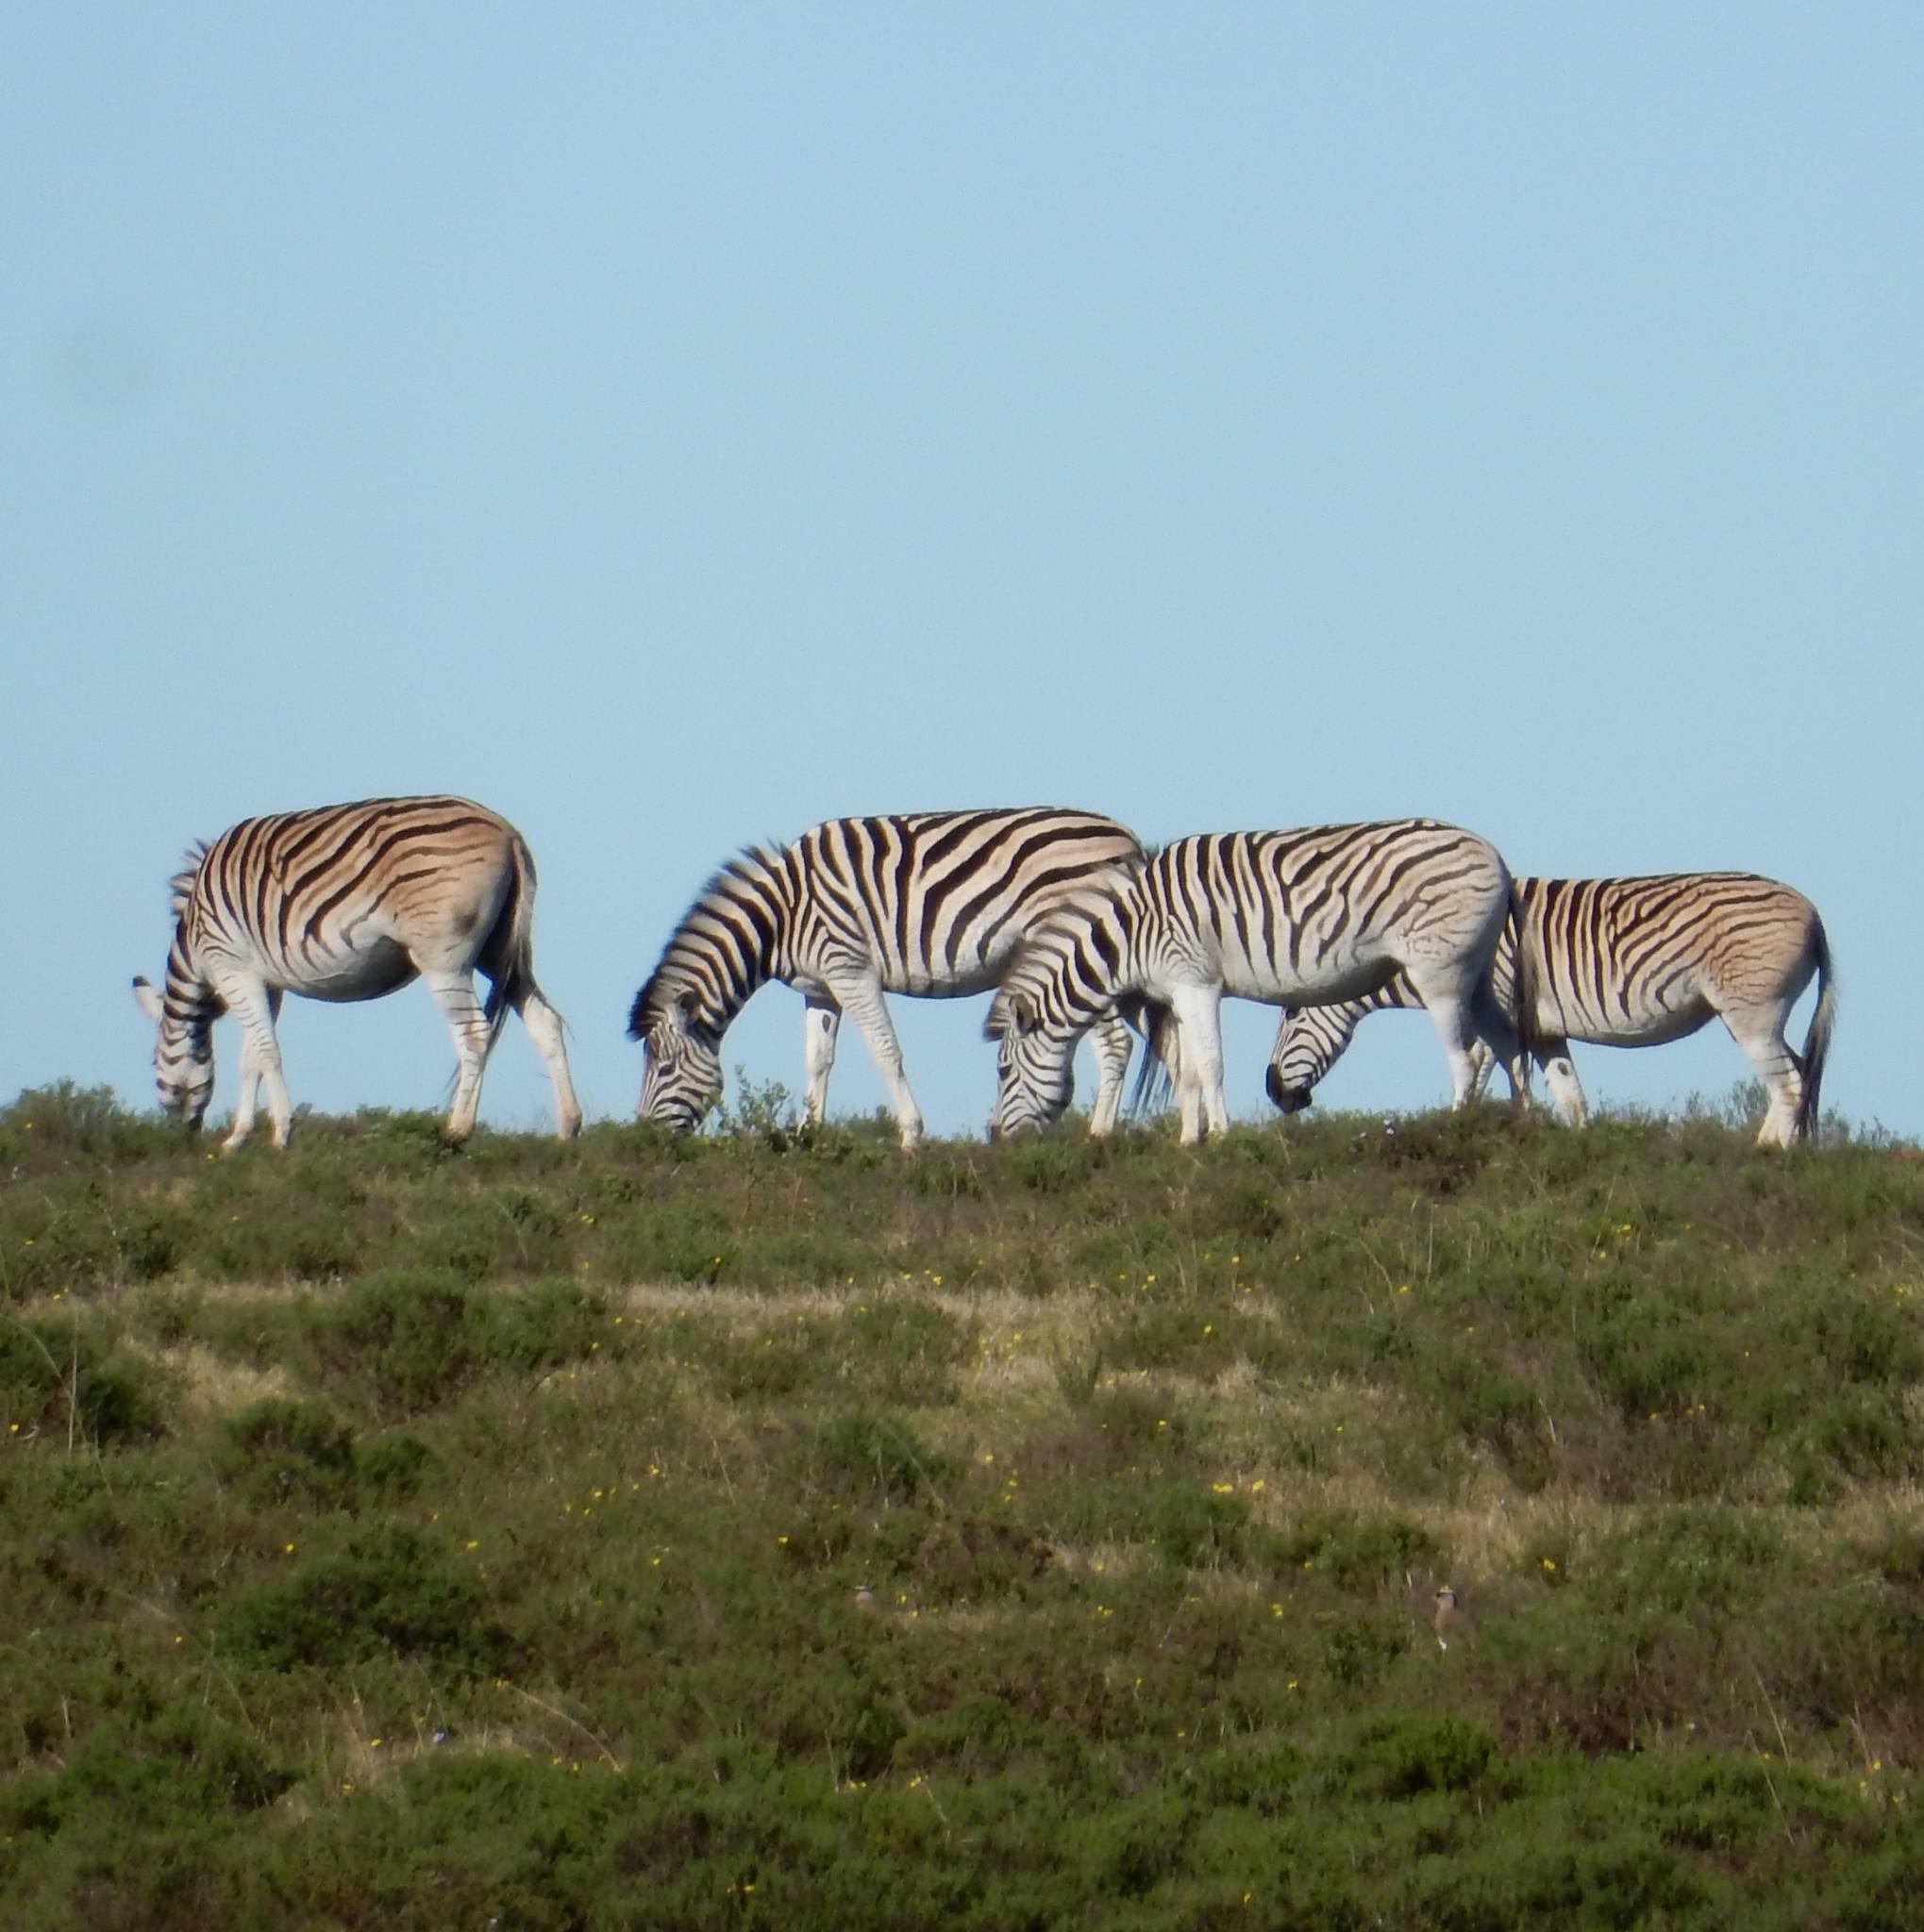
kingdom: Animalia
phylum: Chordata
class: Mammalia
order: Perissodactyla
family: Equidae
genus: Equus
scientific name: Equus quagga
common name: Plains zebra
